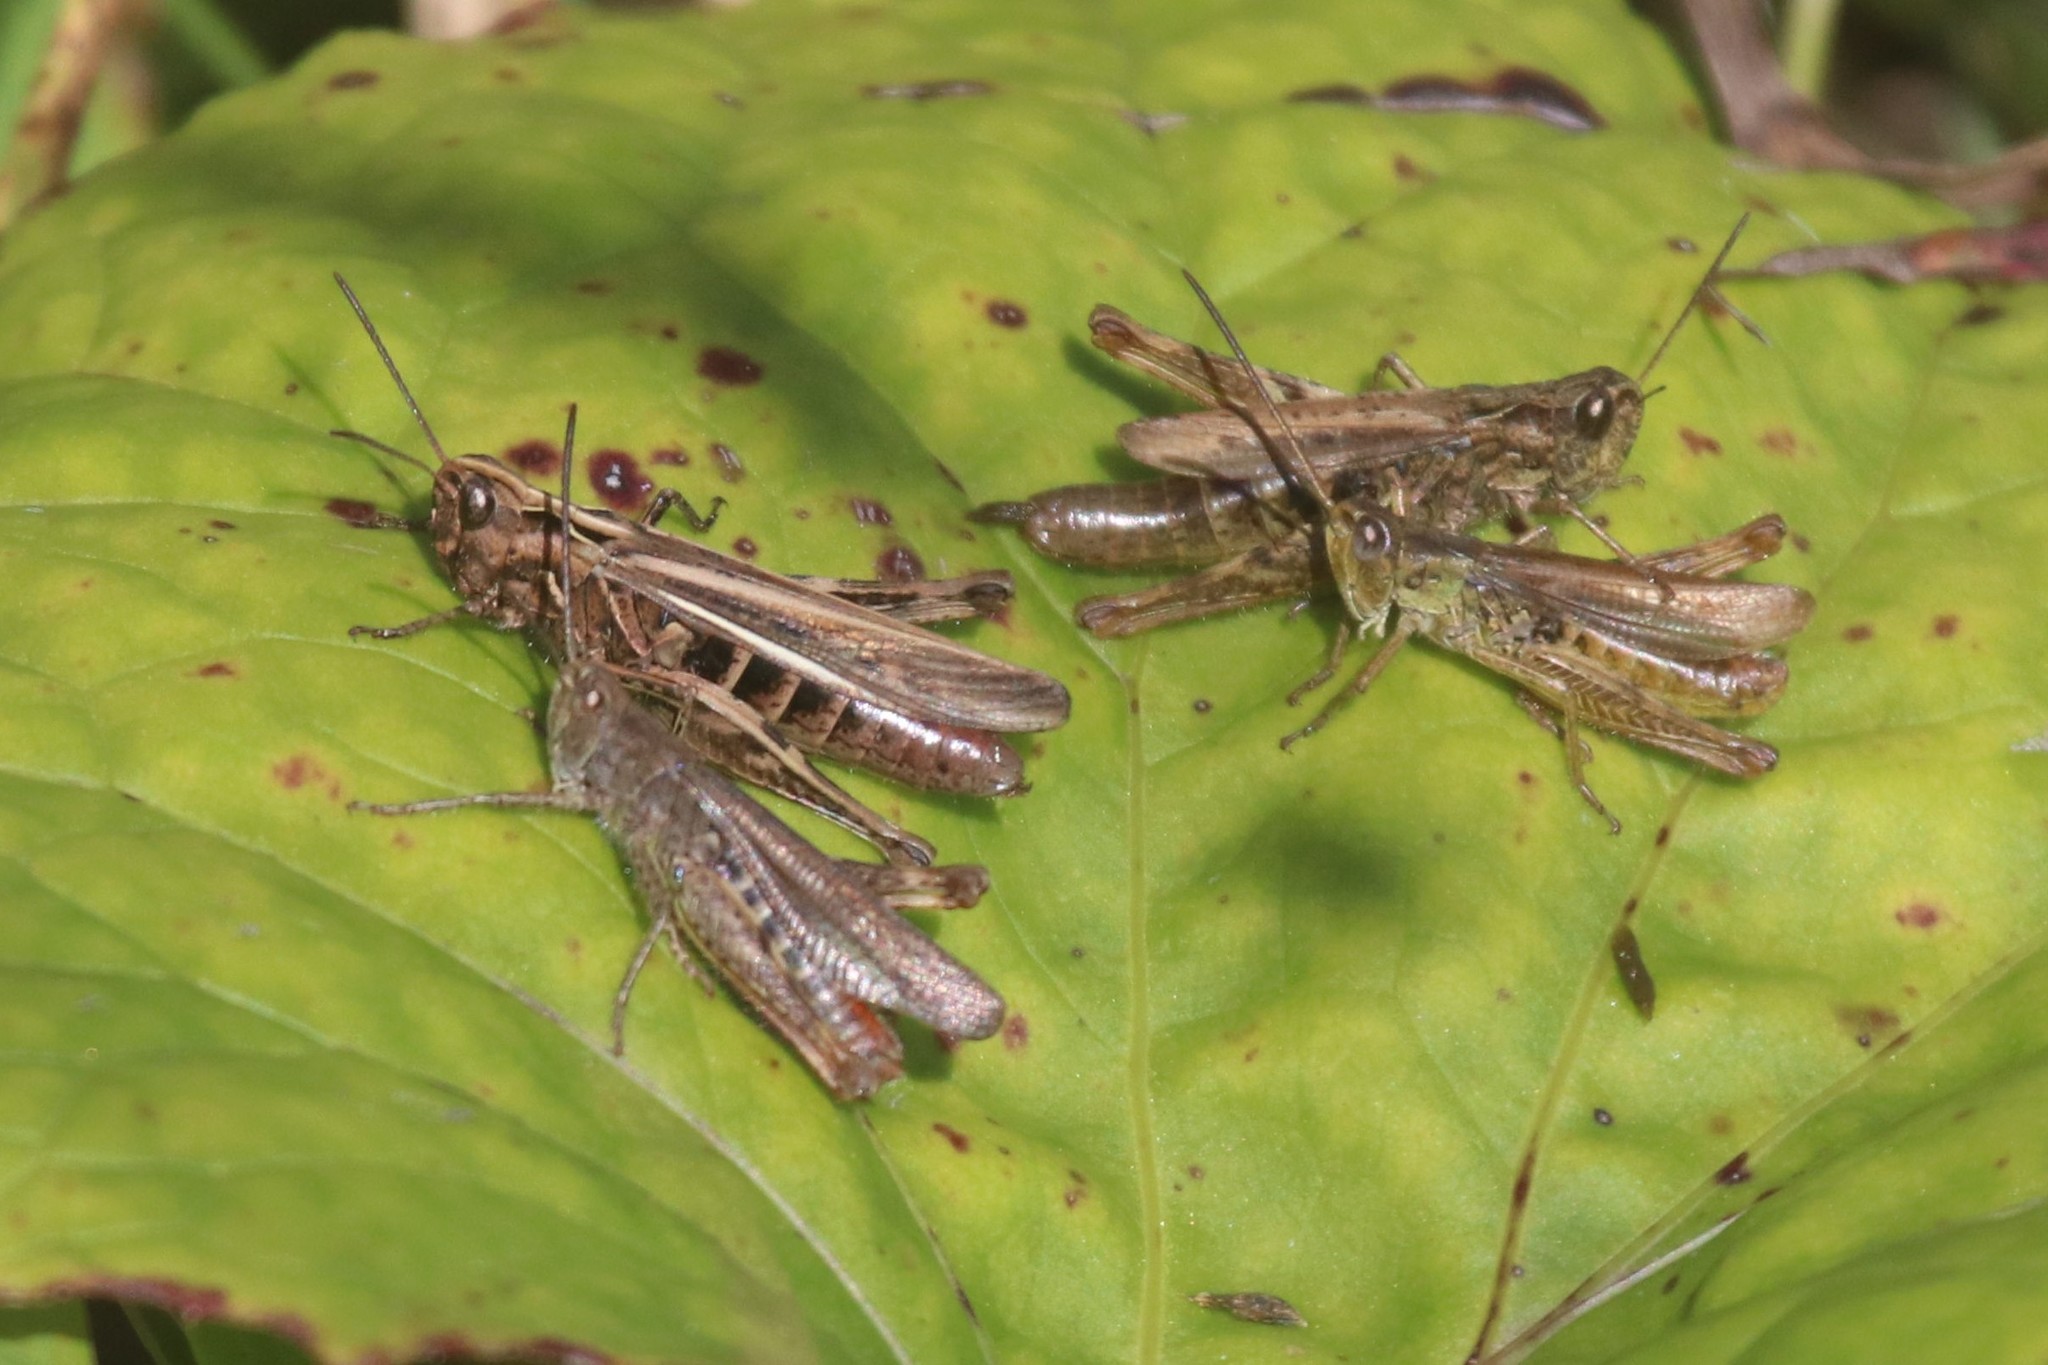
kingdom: Animalia
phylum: Arthropoda
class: Insecta
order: Orthoptera
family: Acrididae
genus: Chorthippus
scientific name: Chorthippus apricarius
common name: Upland field grasshopper
